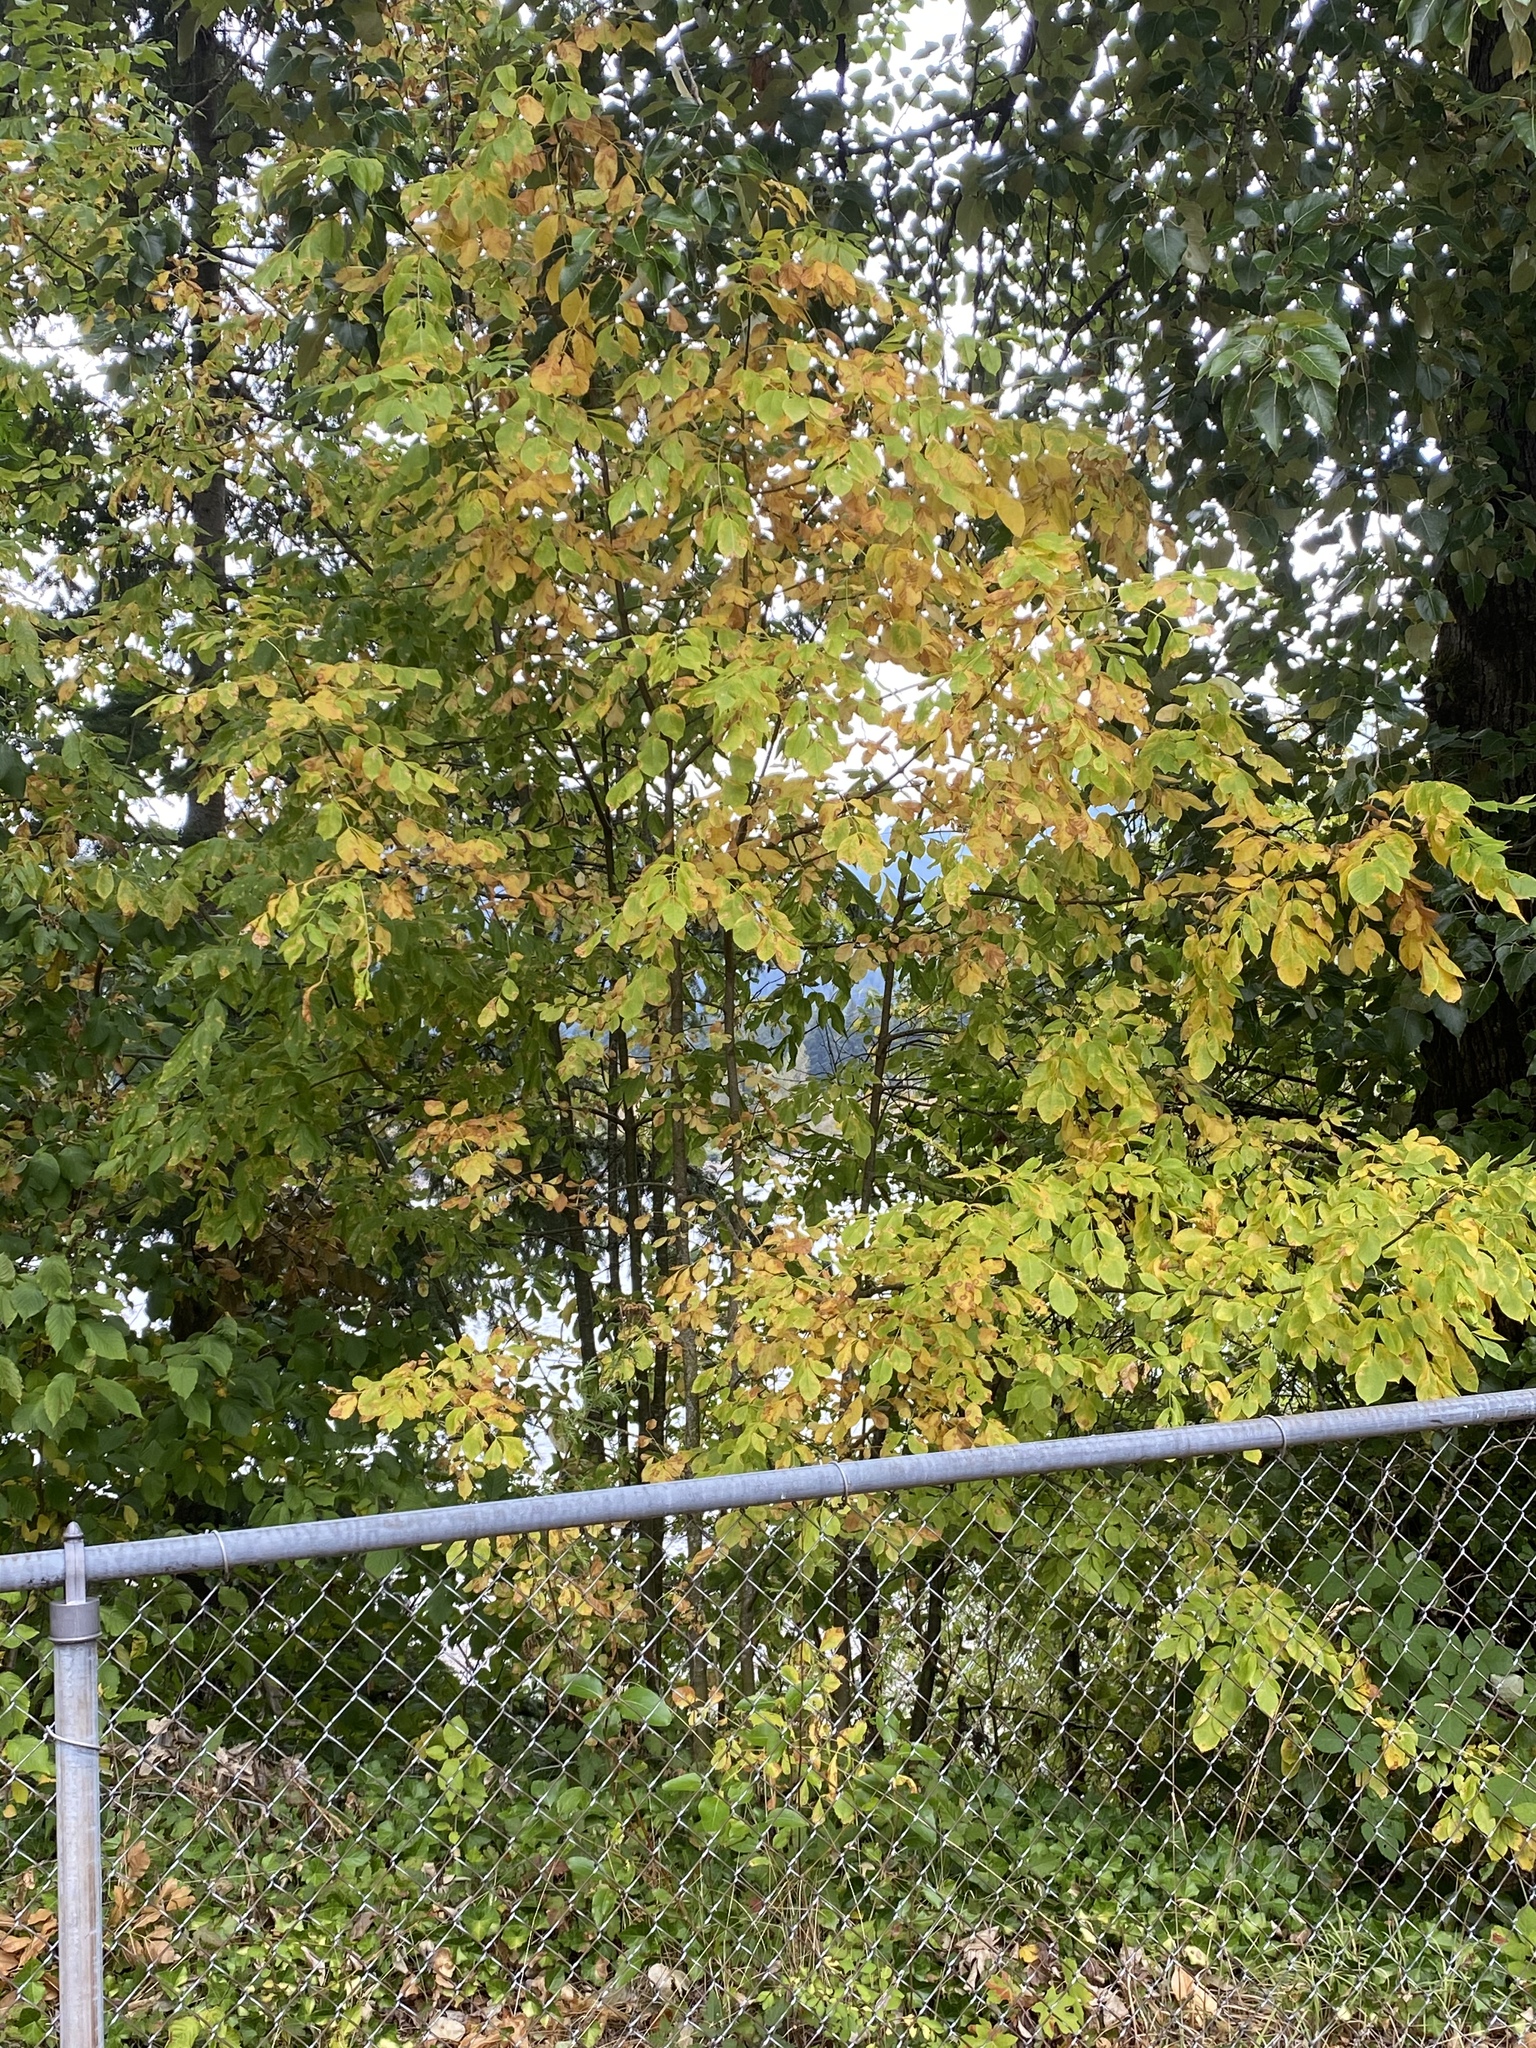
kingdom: Plantae
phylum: Tracheophyta
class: Magnoliopsida
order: Lamiales
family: Oleaceae
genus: Fraxinus
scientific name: Fraxinus latifolia
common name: Oregon ash
